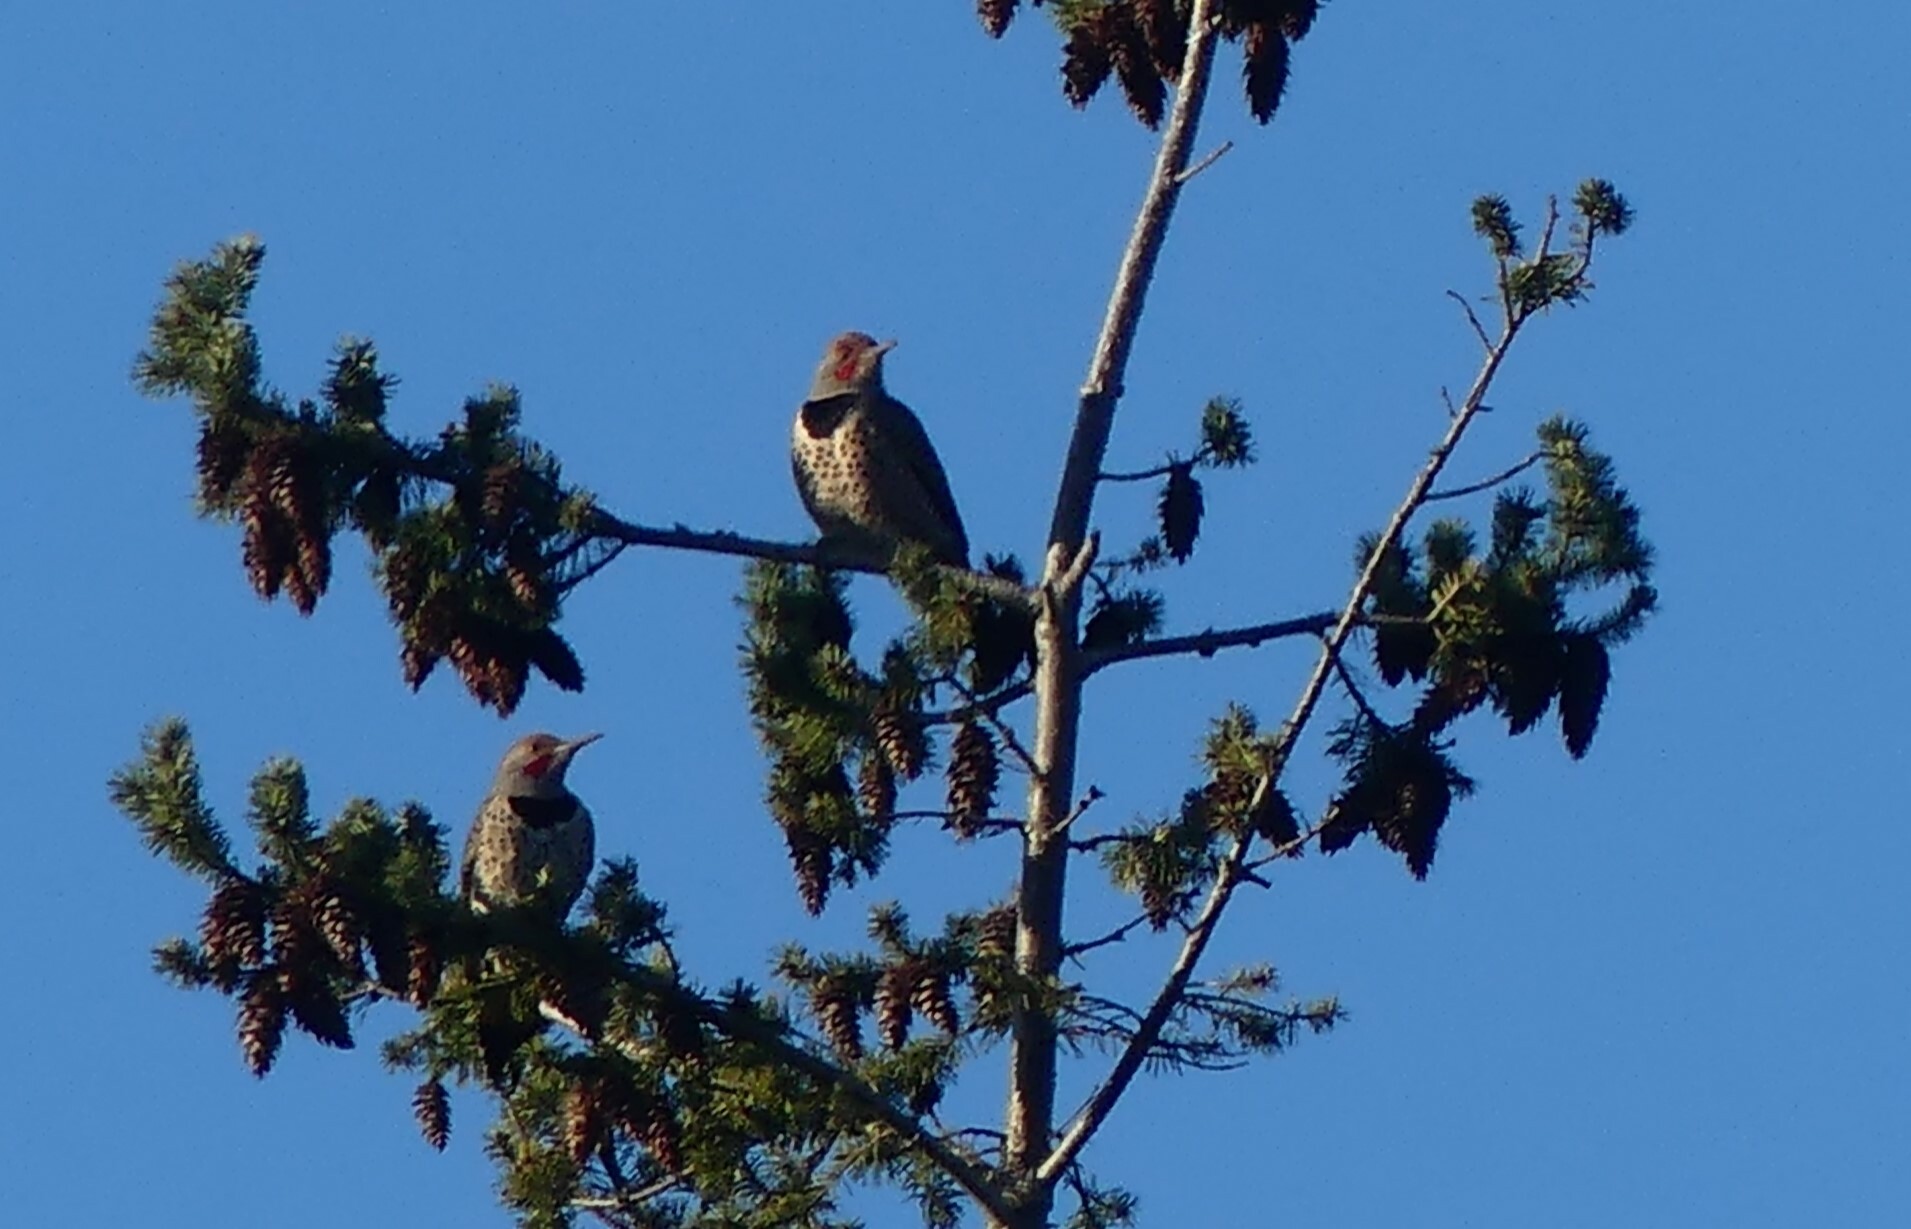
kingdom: Animalia
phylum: Chordata
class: Aves
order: Piciformes
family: Picidae
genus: Colaptes
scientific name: Colaptes auratus
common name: Northern flicker
